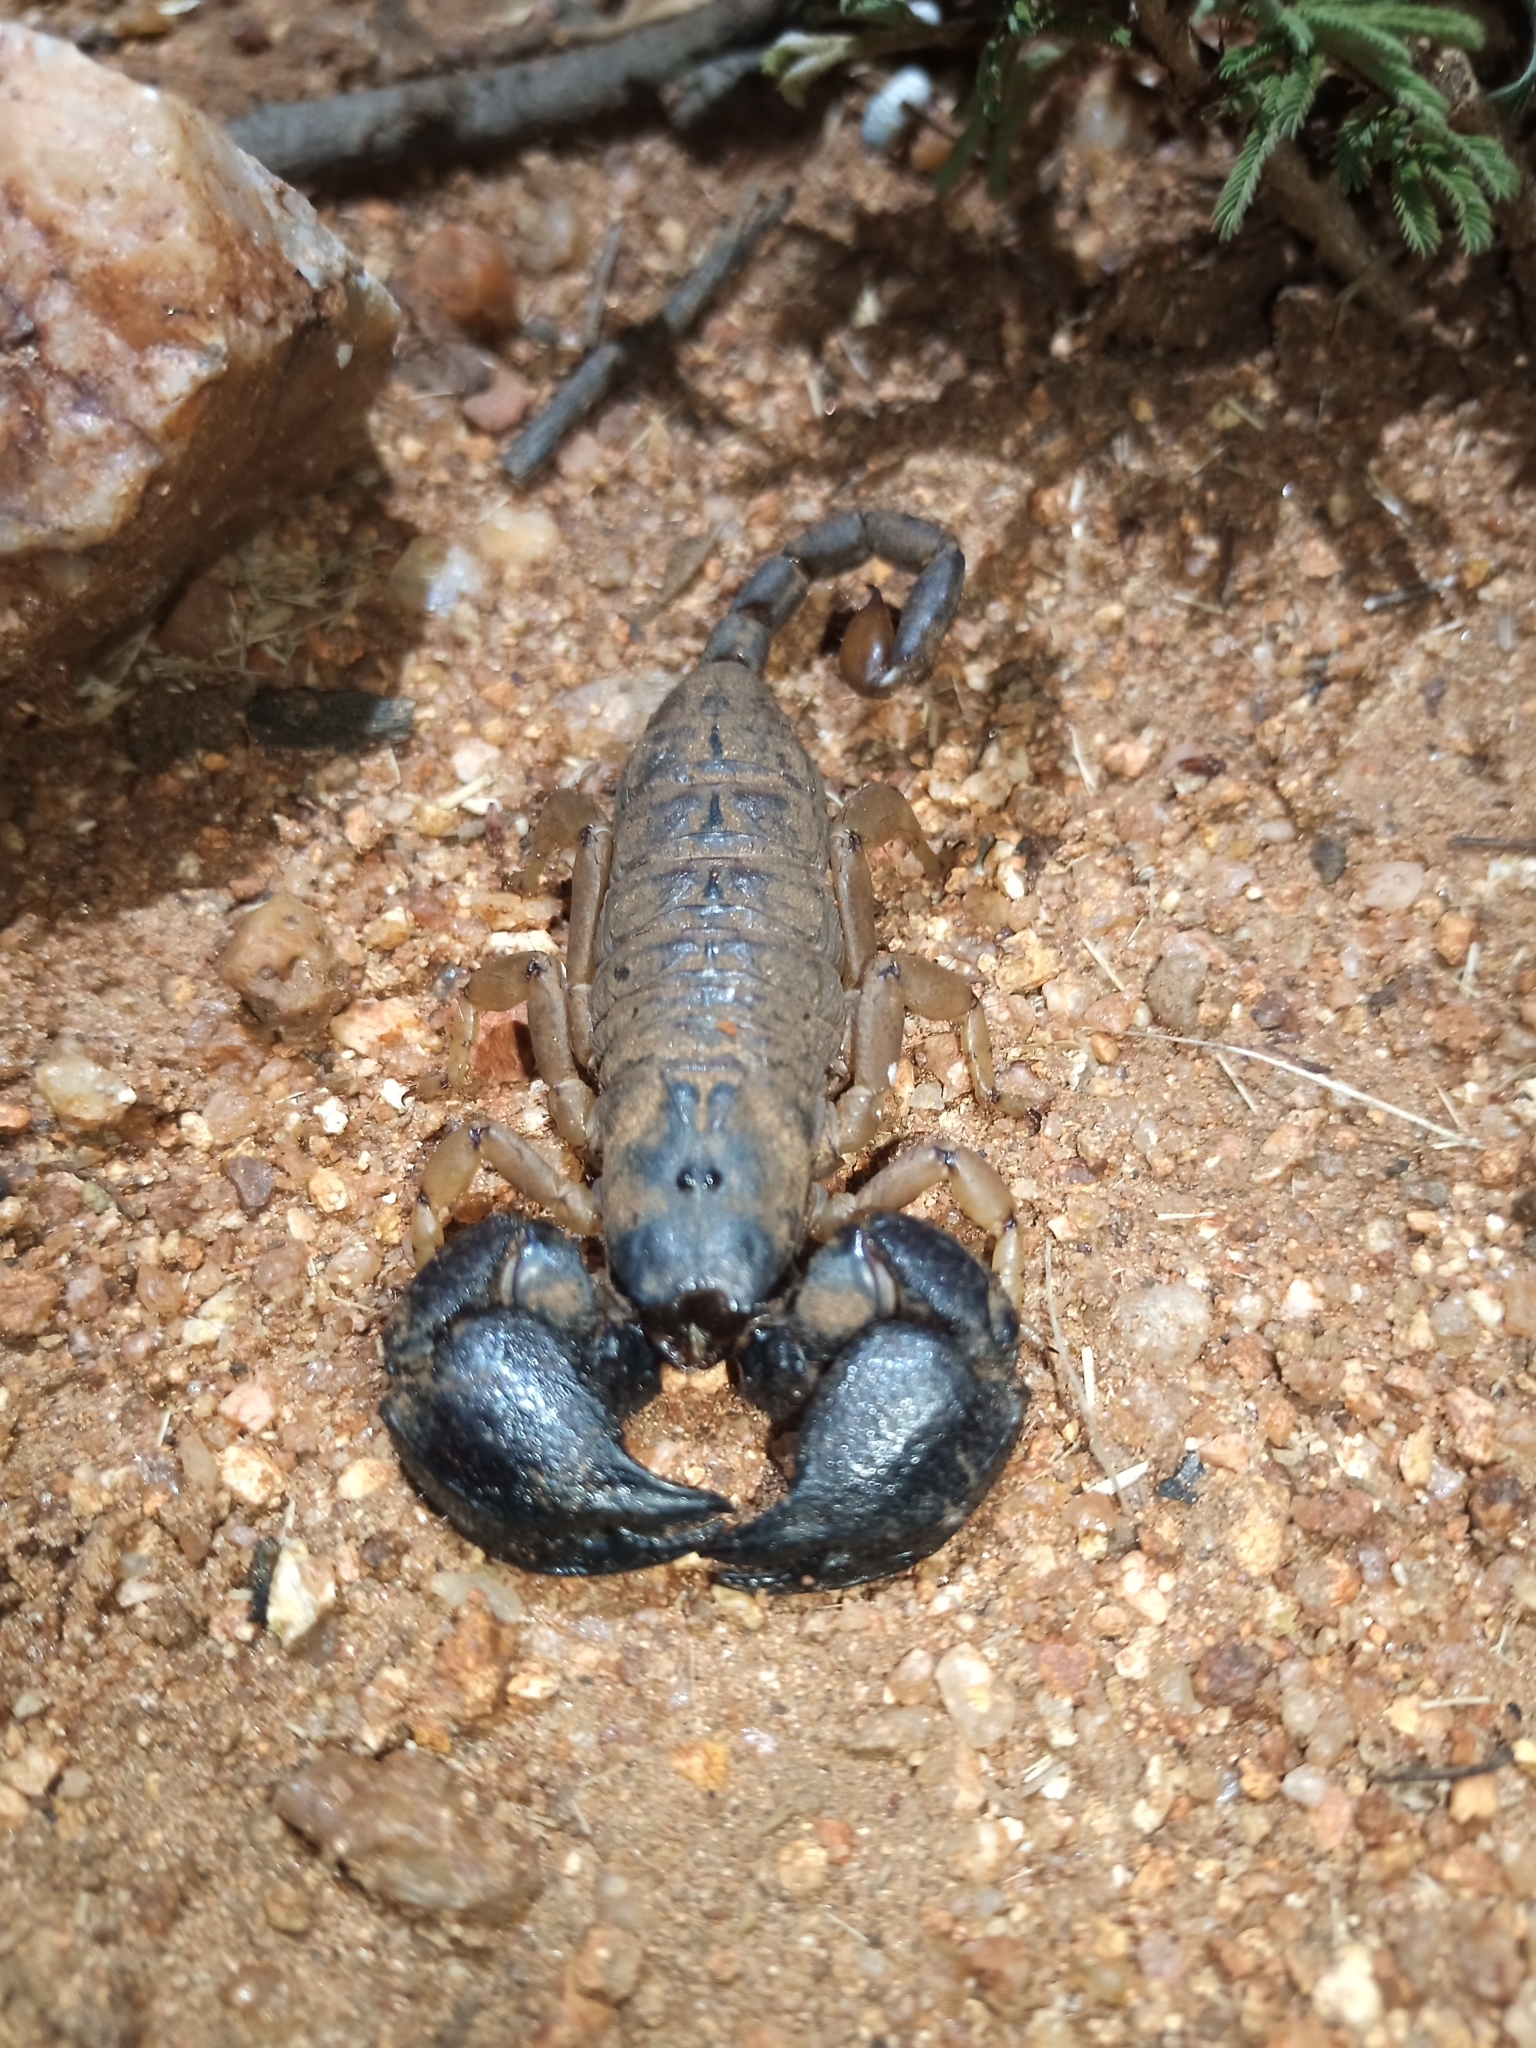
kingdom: Animalia
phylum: Arthropoda
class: Arachnida
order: Scorpiones
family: Hormuridae
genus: Cheloctonus
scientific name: Cheloctonus jonesii
